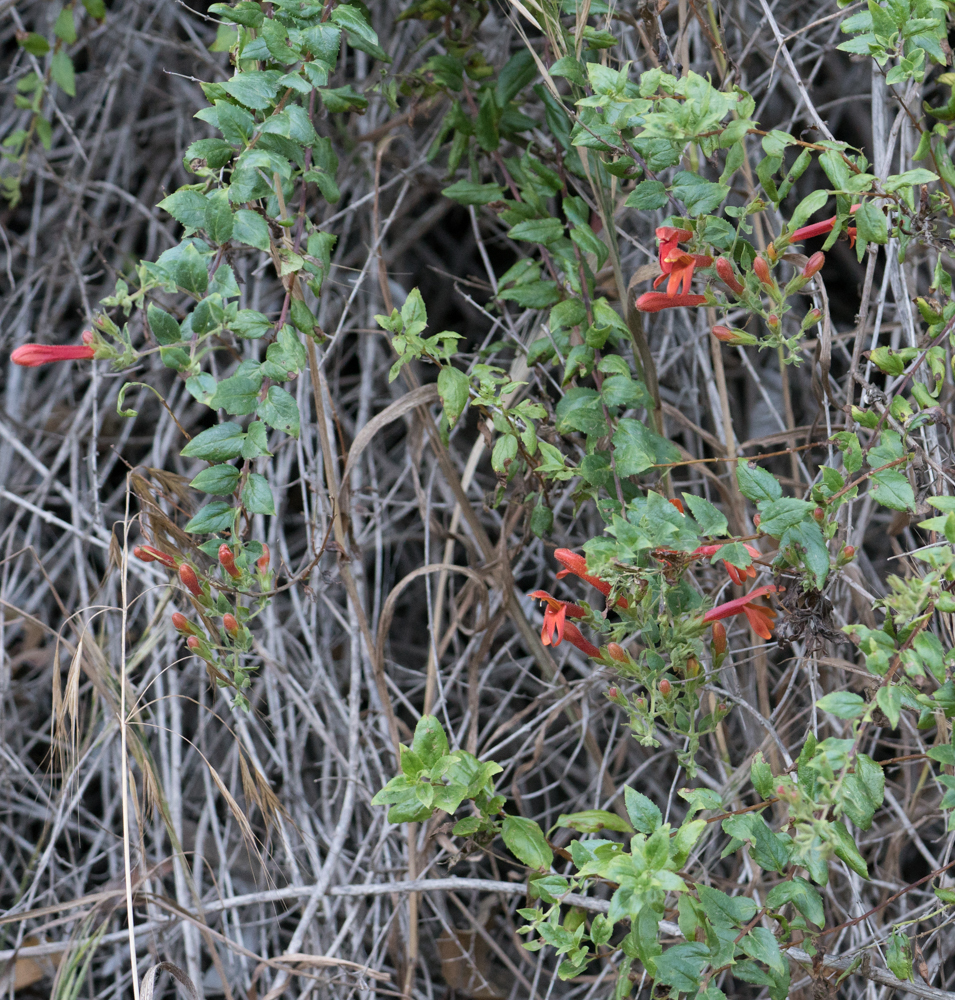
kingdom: Plantae
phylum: Tracheophyta
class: Magnoliopsida
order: Lamiales
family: Plantaginaceae
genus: Keckiella
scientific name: Keckiella cordifolia
